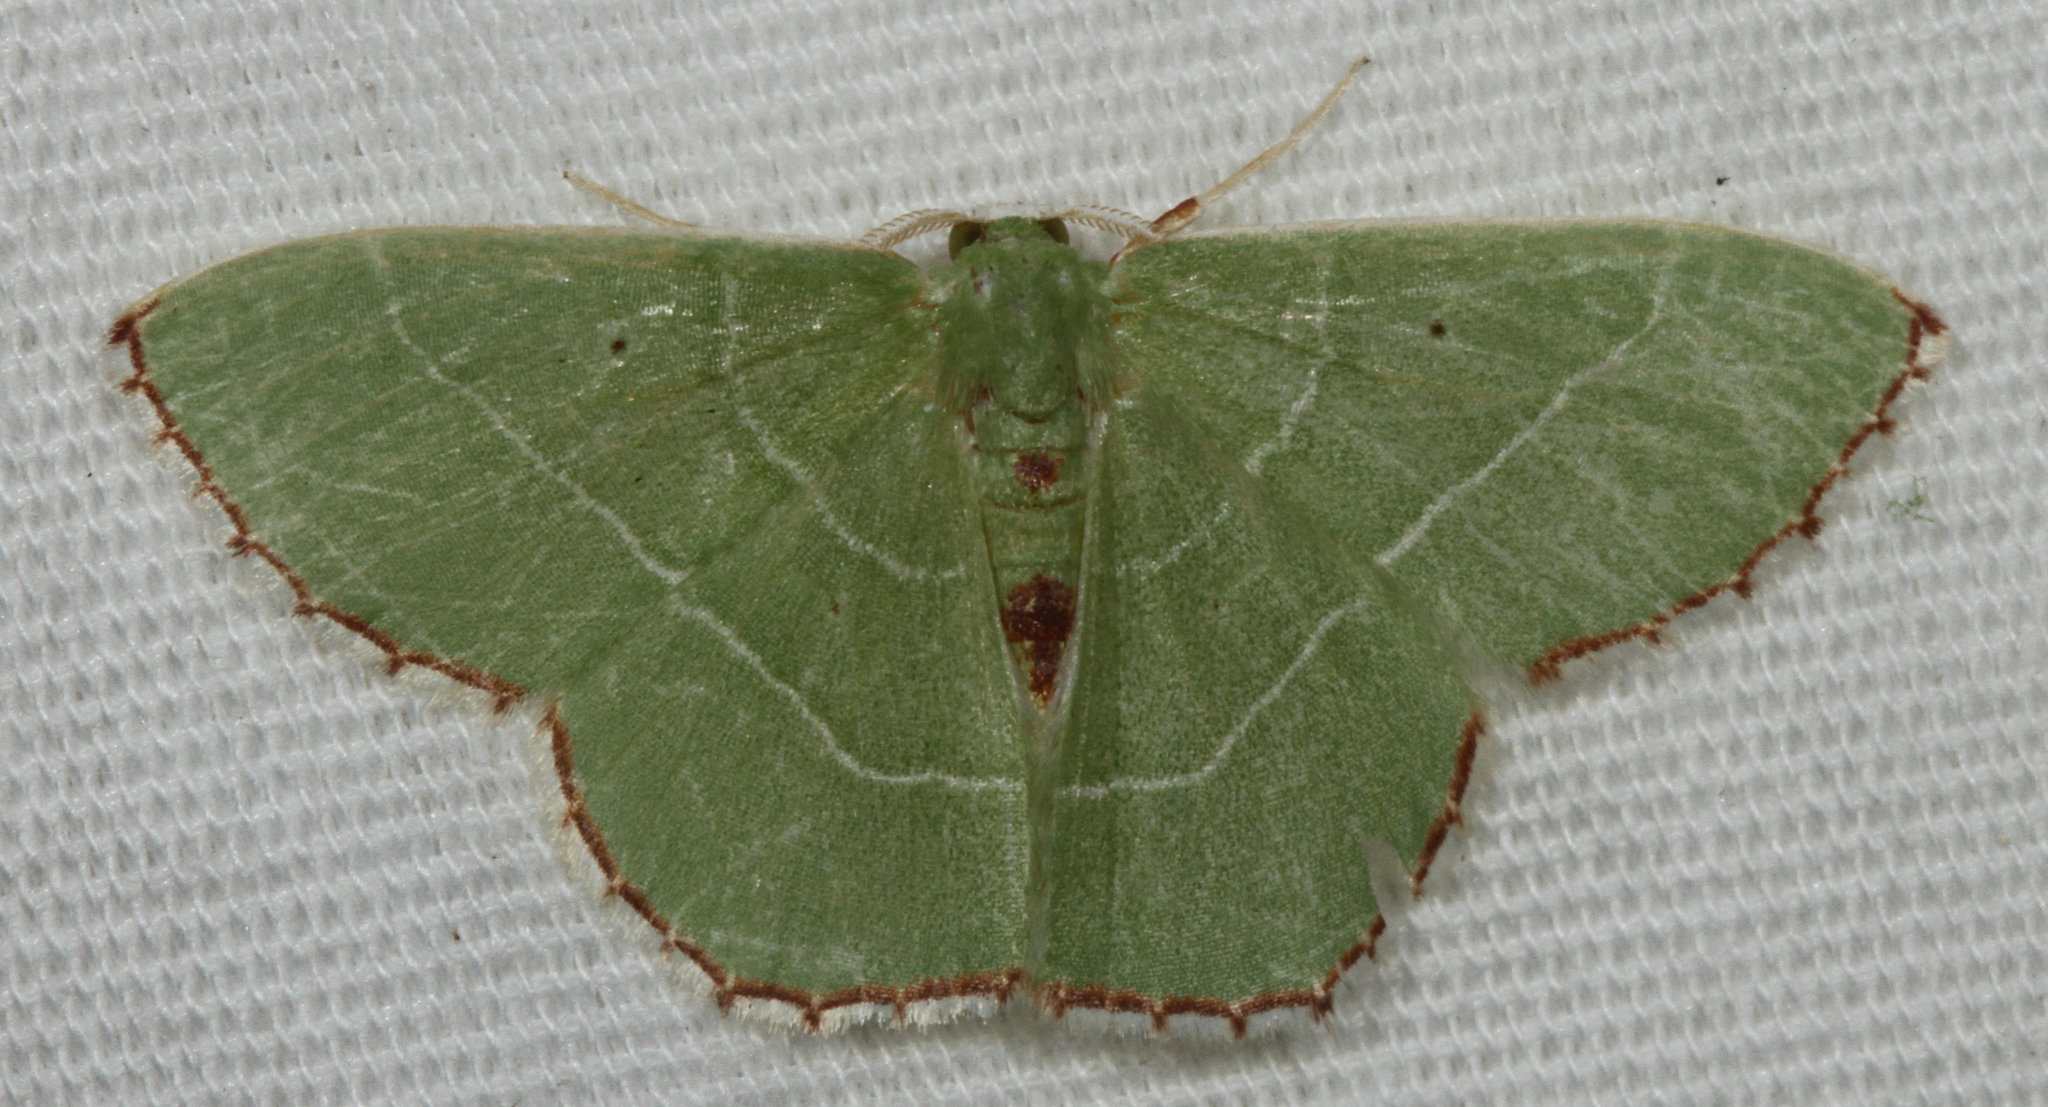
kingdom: Animalia
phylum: Arthropoda
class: Insecta
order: Lepidoptera
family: Geometridae
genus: Nemoria
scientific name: Nemoria saturiba
